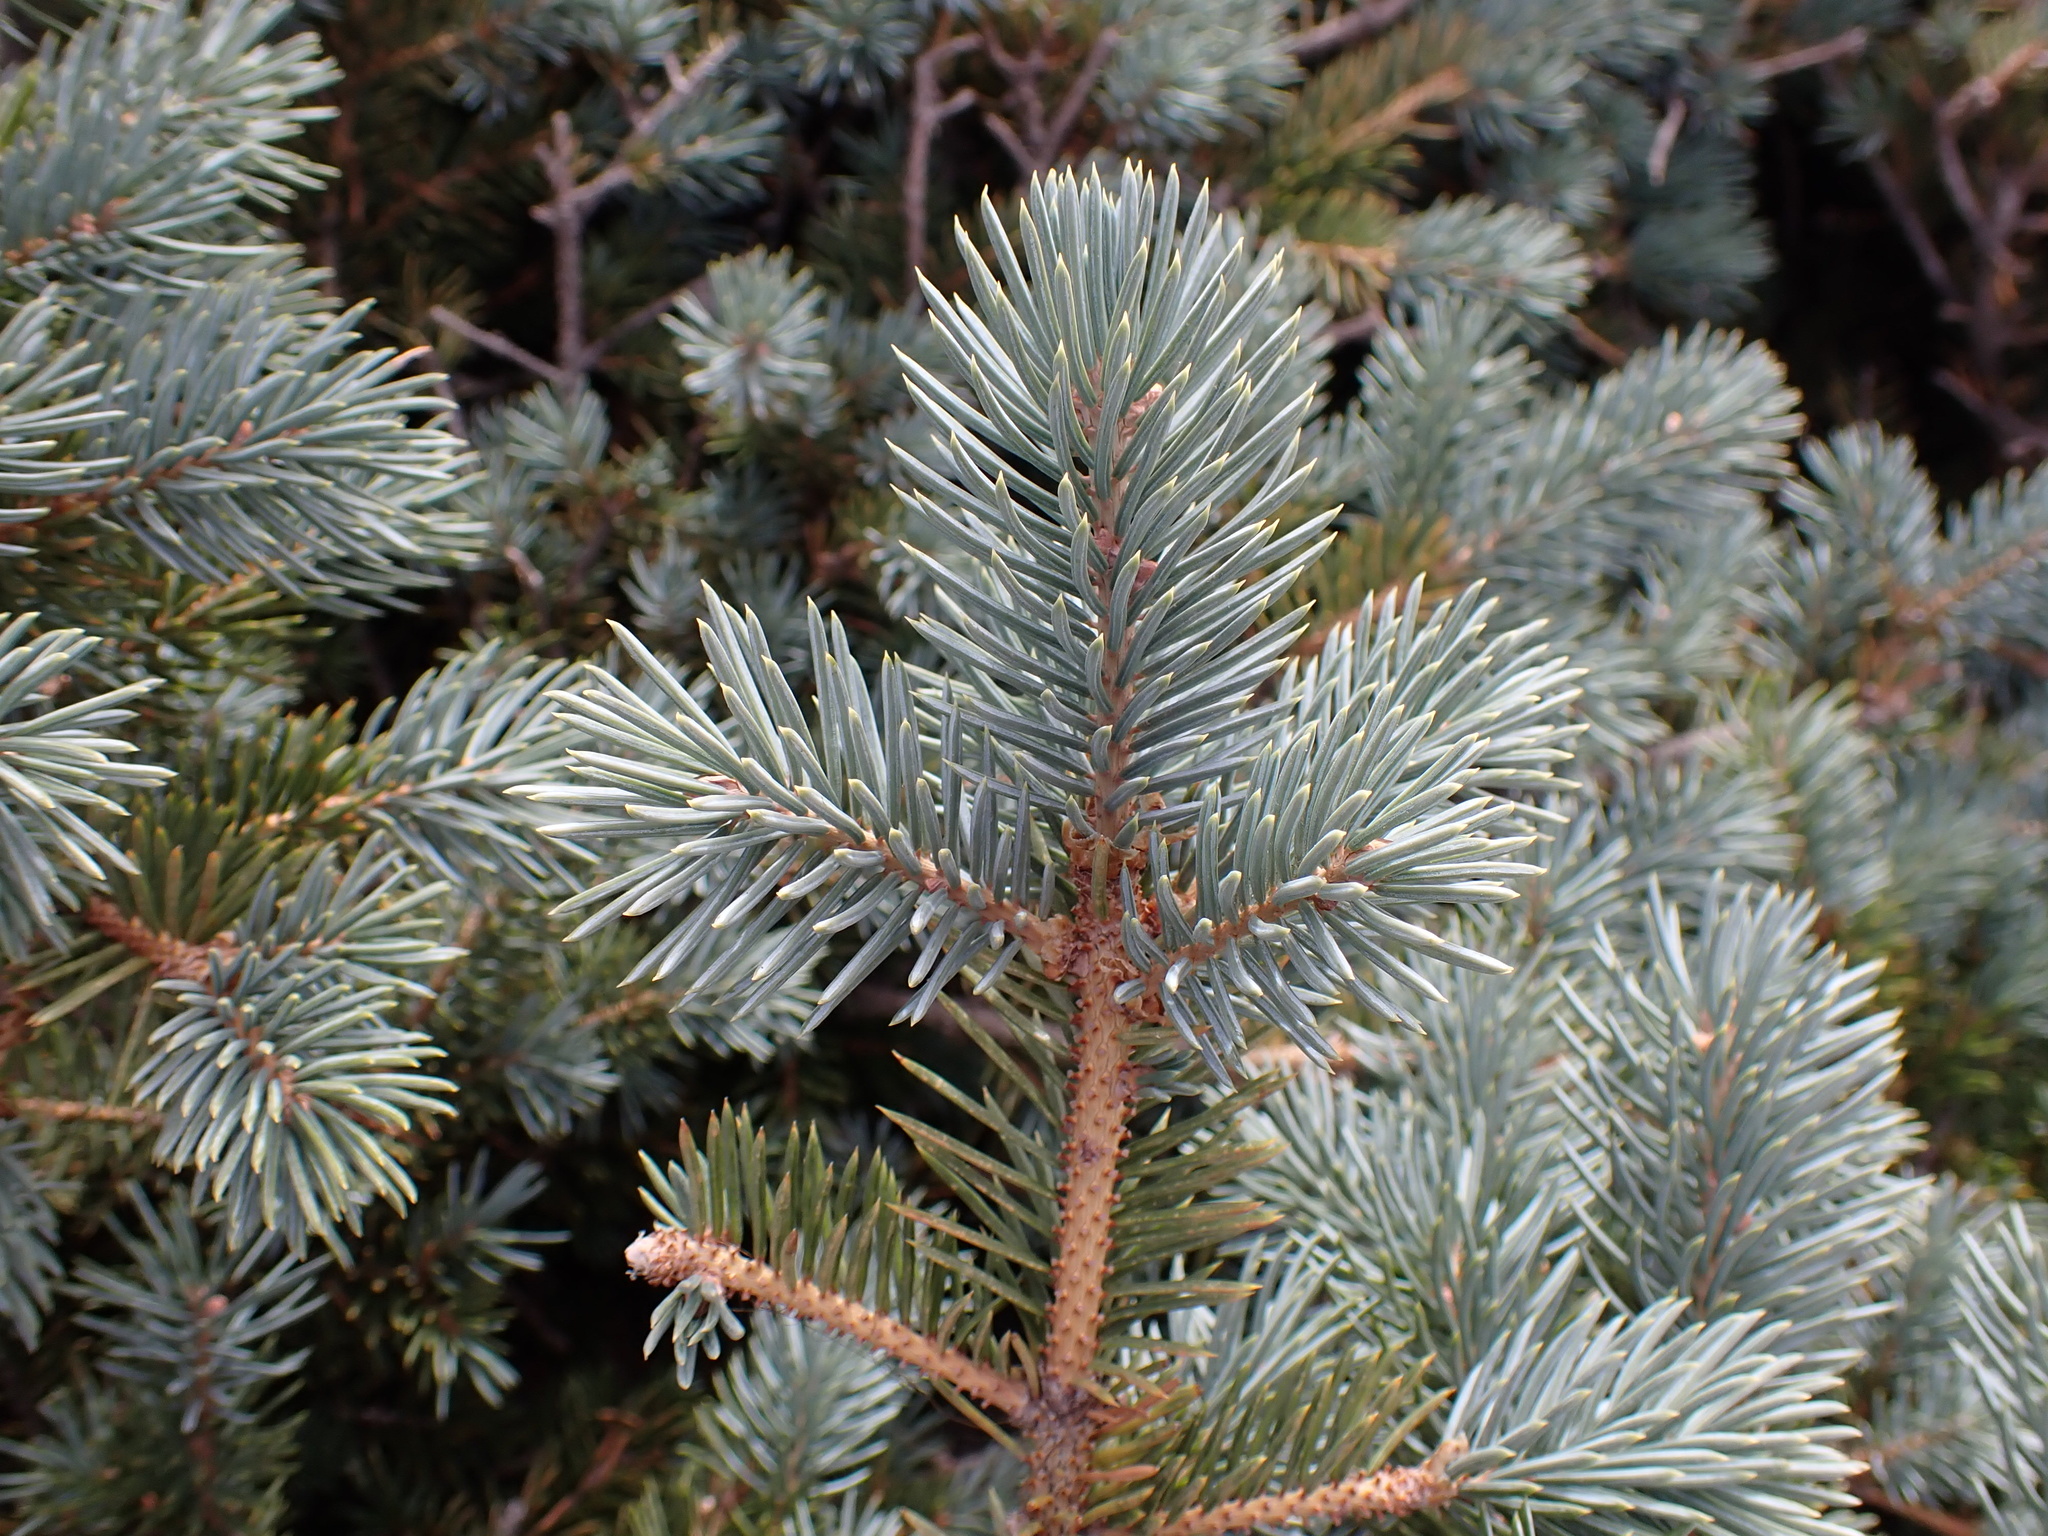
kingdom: Plantae
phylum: Tracheophyta
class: Pinopsida
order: Pinales
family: Pinaceae
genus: Picea
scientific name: Picea engelmannii
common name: Engelmann spruce
